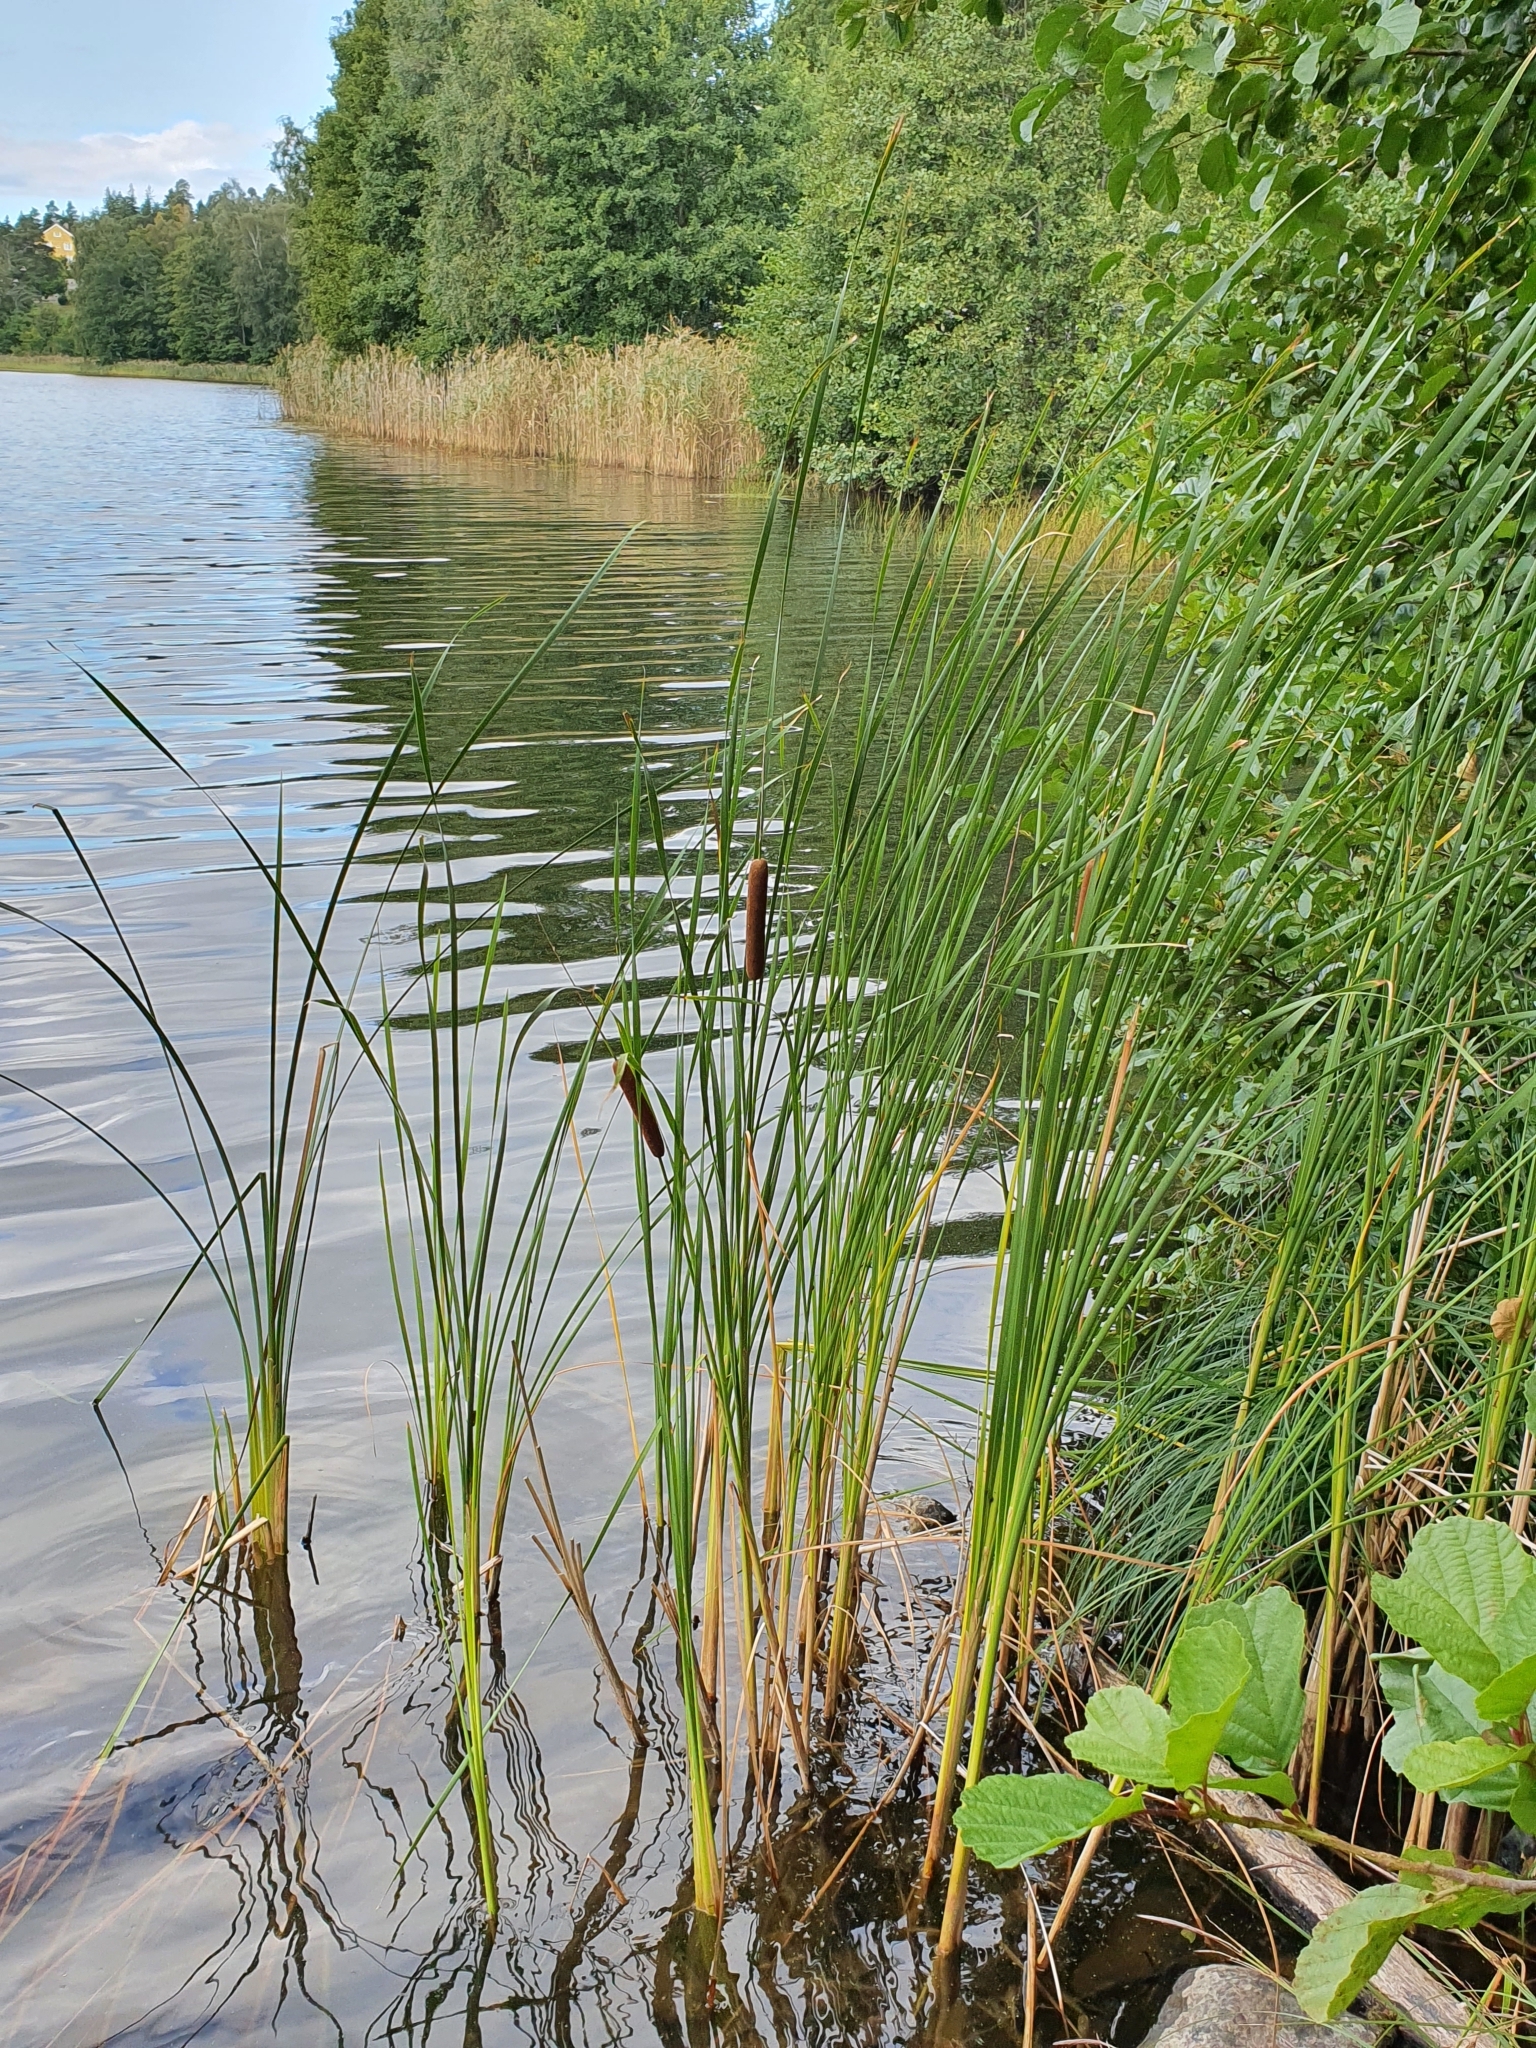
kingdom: Plantae
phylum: Tracheophyta
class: Liliopsida
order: Poales
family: Typhaceae
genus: Typha
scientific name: Typha angustifolia
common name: Lesser bulrush
